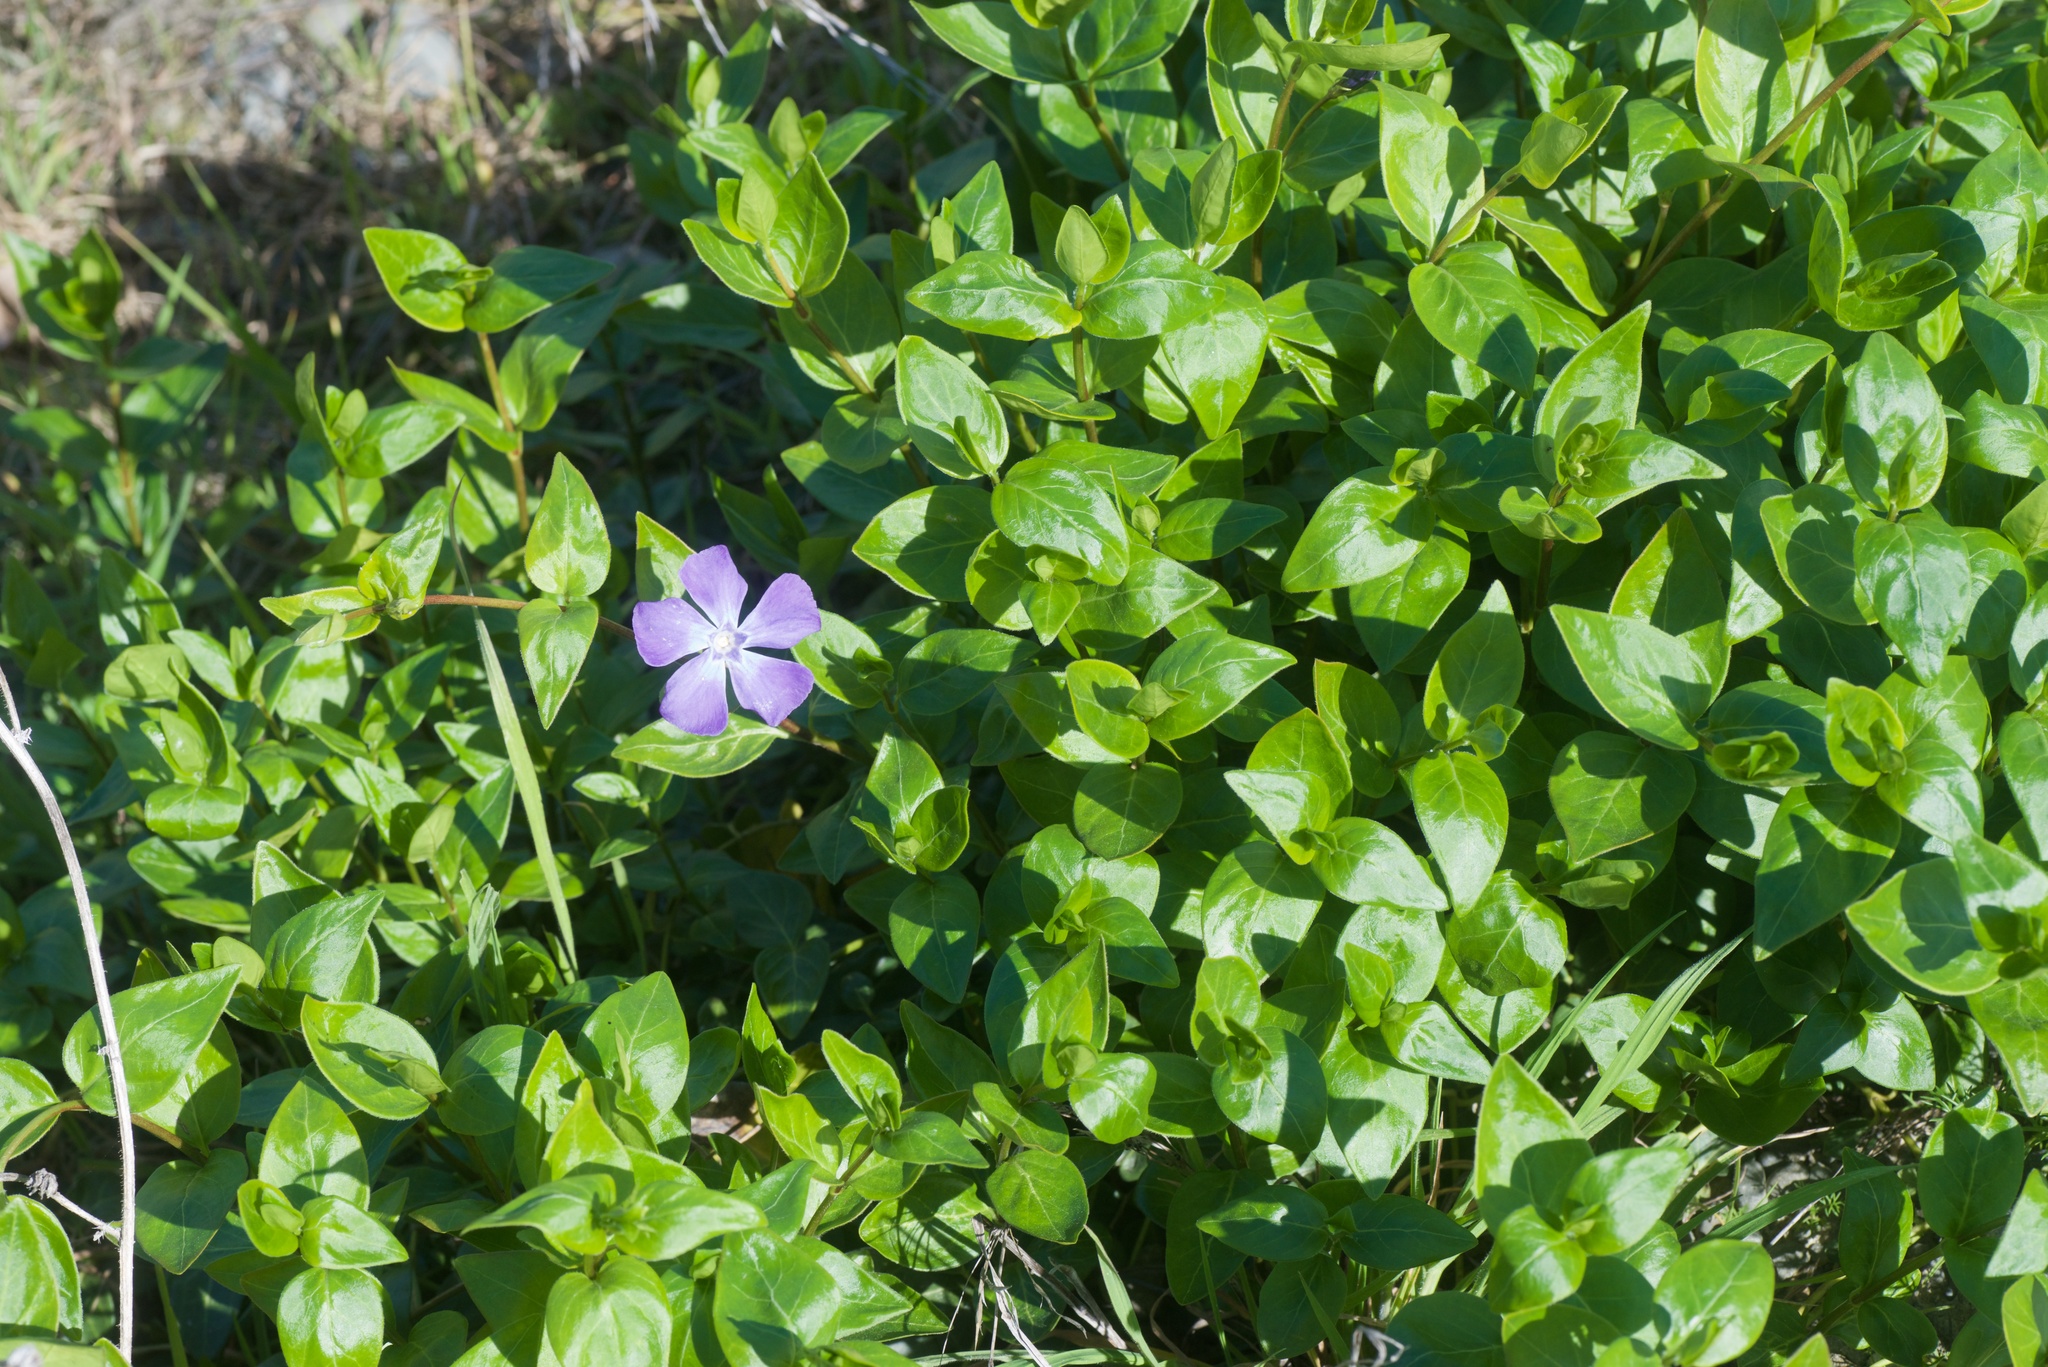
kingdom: Plantae
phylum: Tracheophyta
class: Magnoliopsida
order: Gentianales
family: Apocynaceae
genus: Vinca
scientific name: Vinca major
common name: Greater periwinkle
